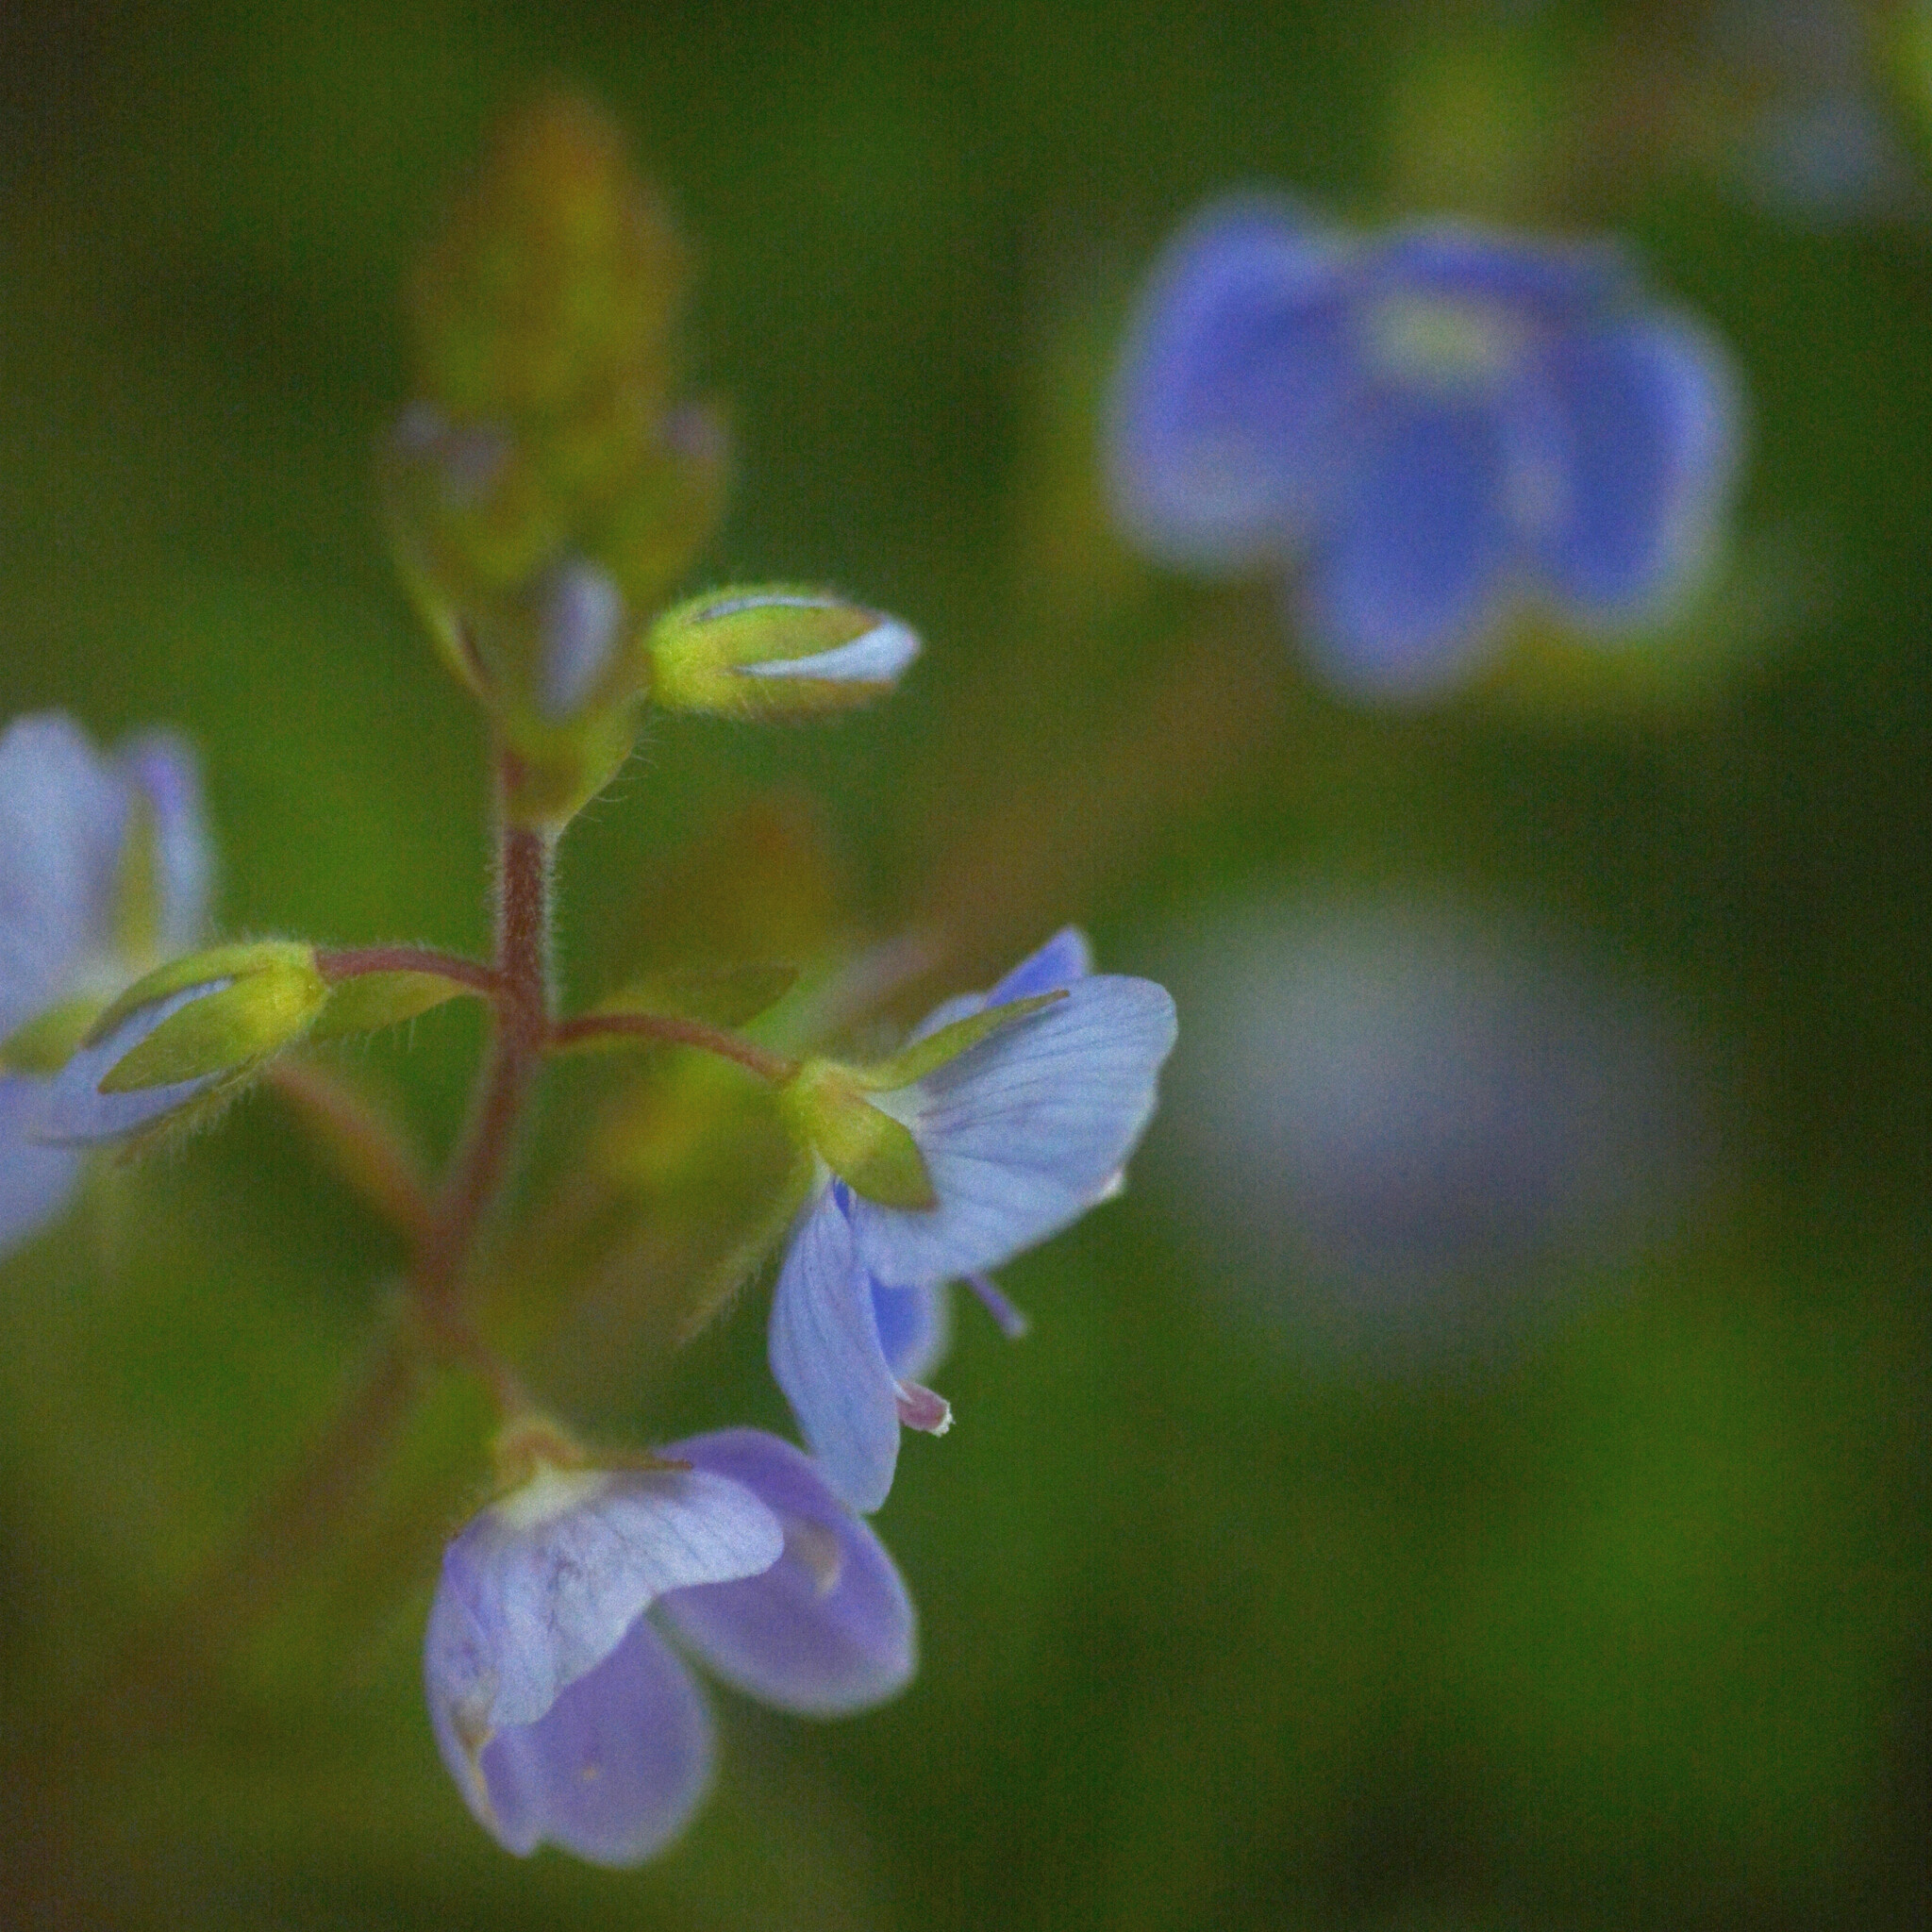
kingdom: Plantae
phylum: Tracheophyta
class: Magnoliopsida
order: Lamiales
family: Plantaginaceae
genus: Veronica
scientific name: Veronica chamaedrys
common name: Germander speedwell
